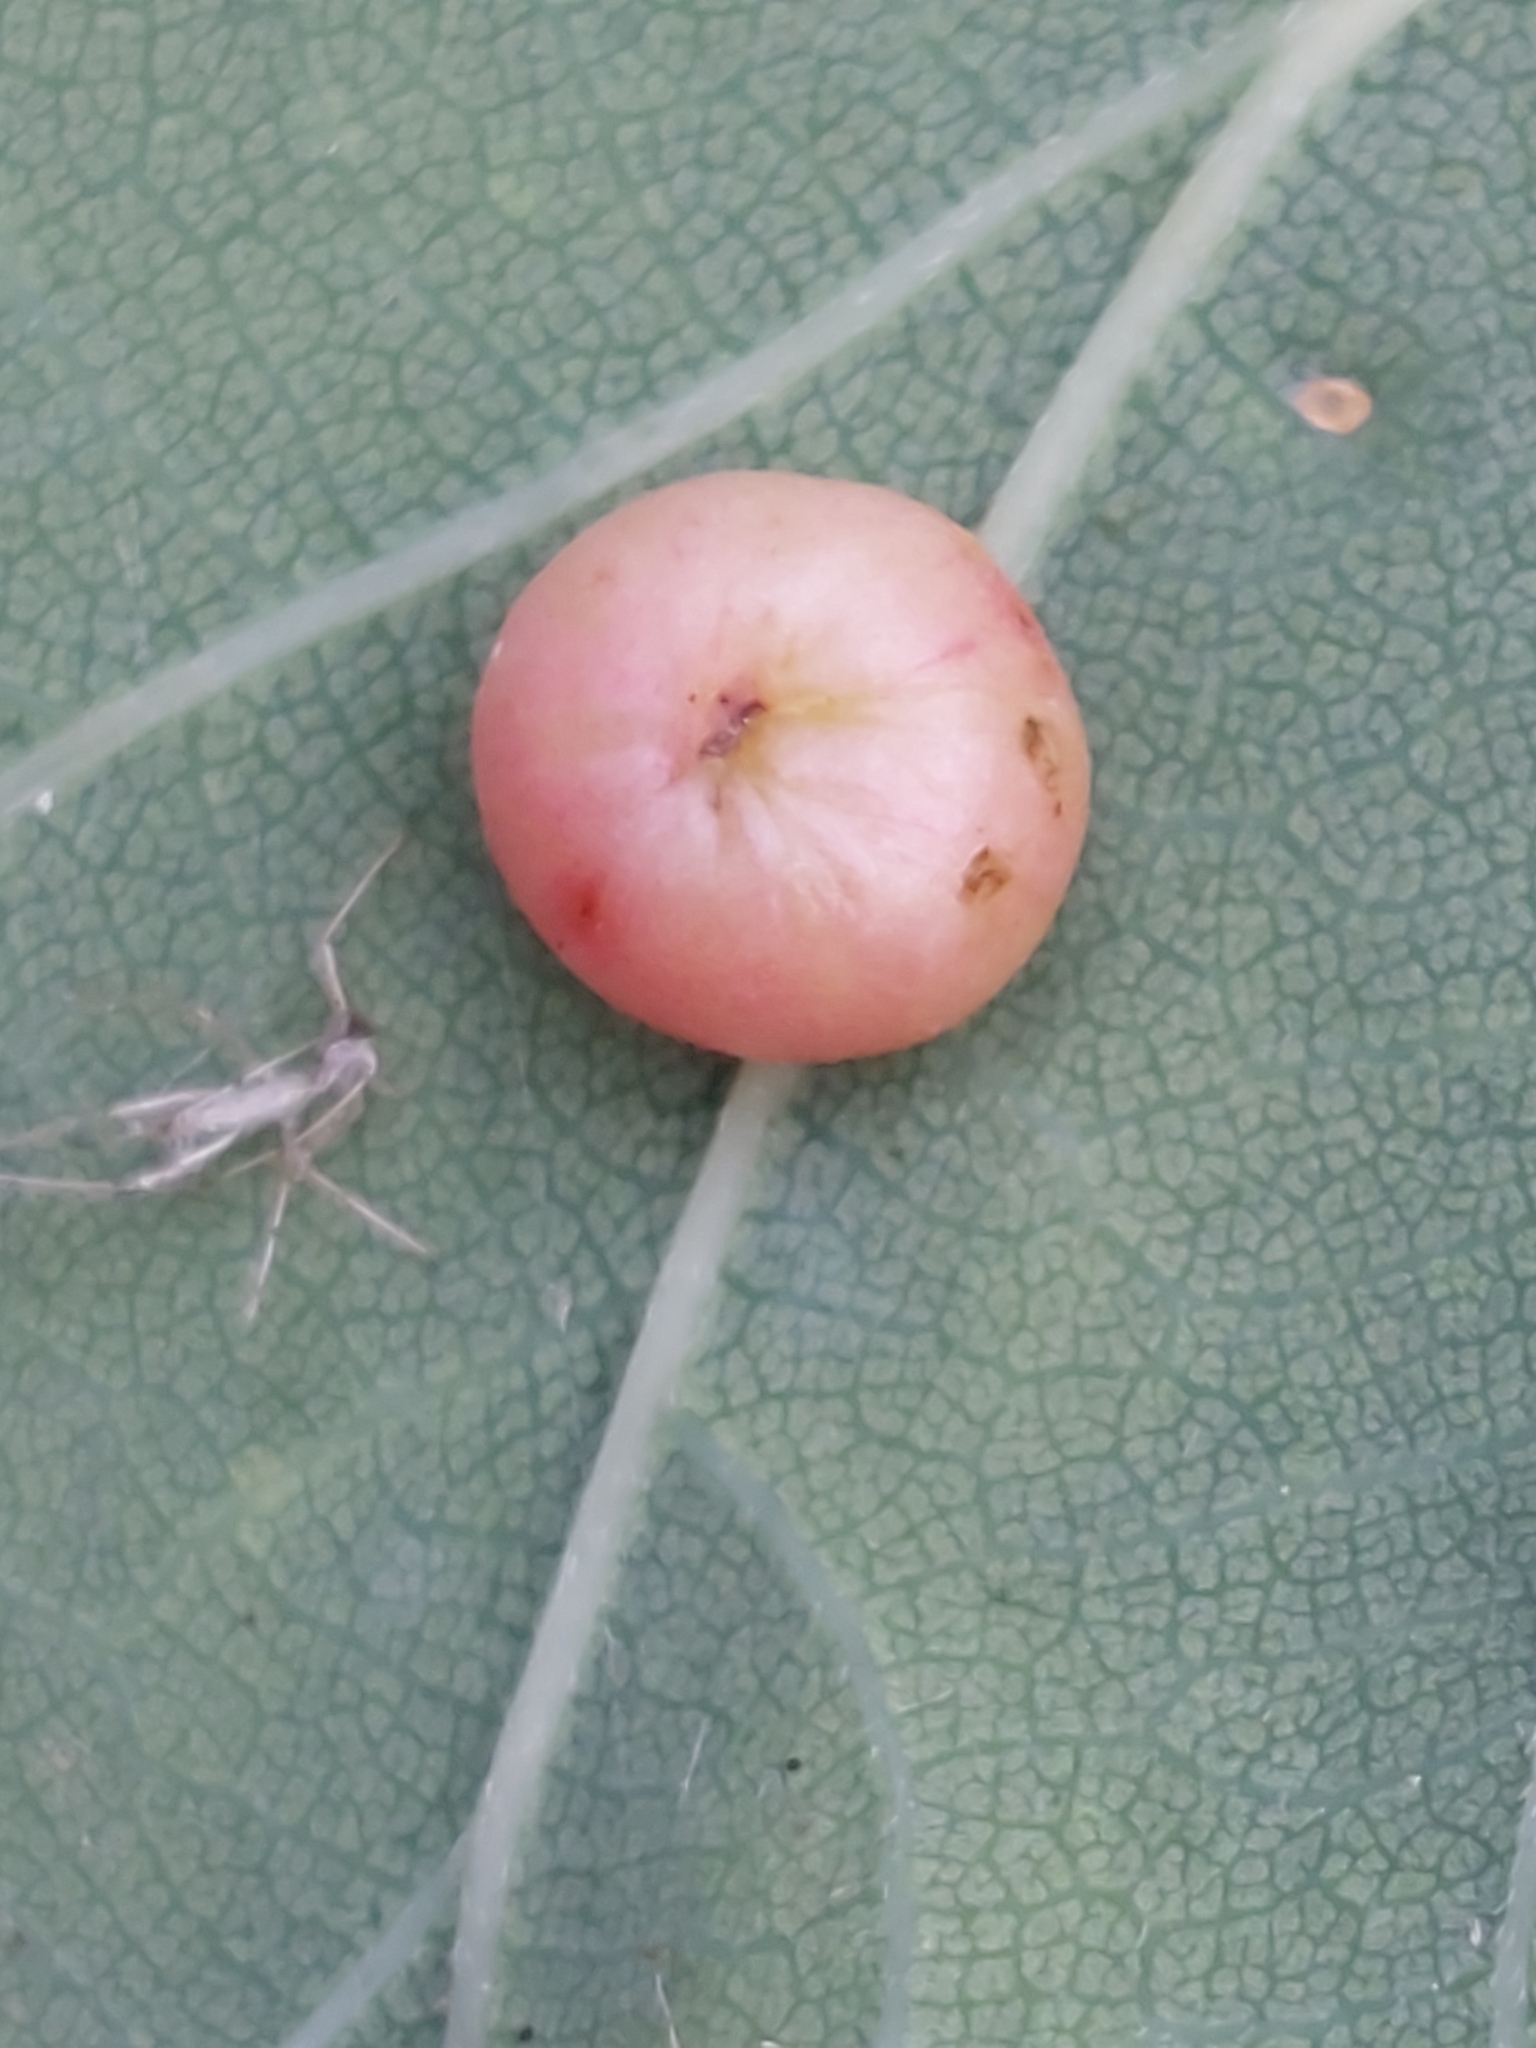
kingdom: Animalia
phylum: Arthropoda
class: Insecta
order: Hymenoptera
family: Cynipidae
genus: Cynips
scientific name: Cynips divisa
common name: Red currant gall
